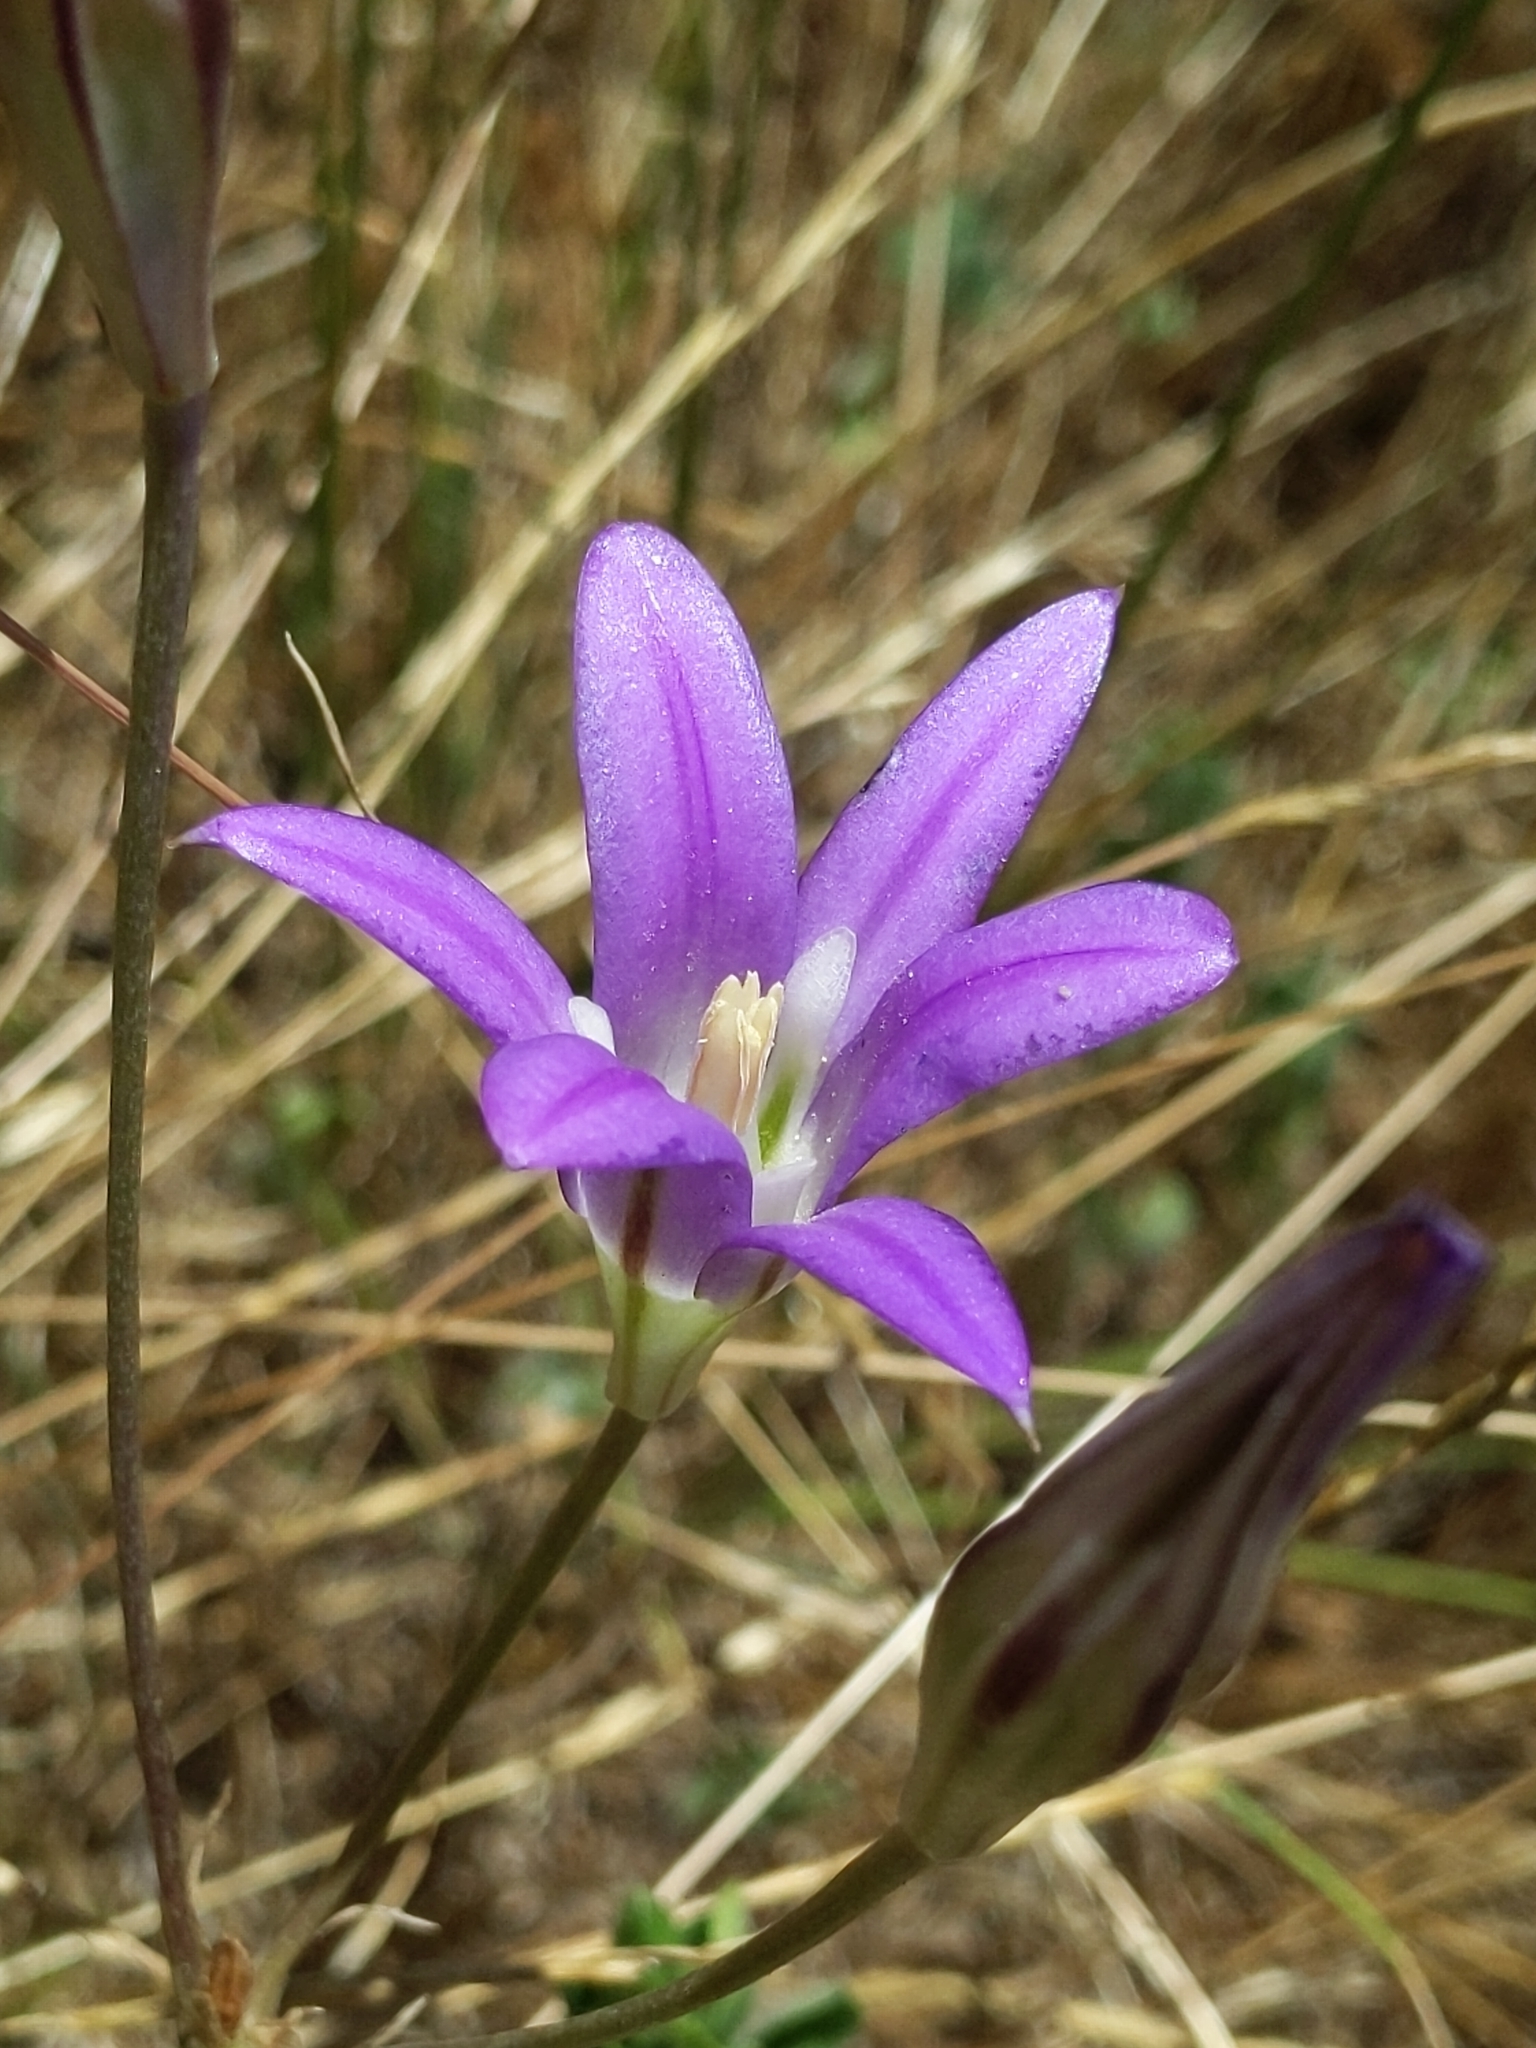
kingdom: Plantae
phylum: Tracheophyta
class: Liliopsida
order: Asparagales
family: Asparagaceae
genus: Brodiaea
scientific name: Brodiaea elegans
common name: Elegant cluster-lily
